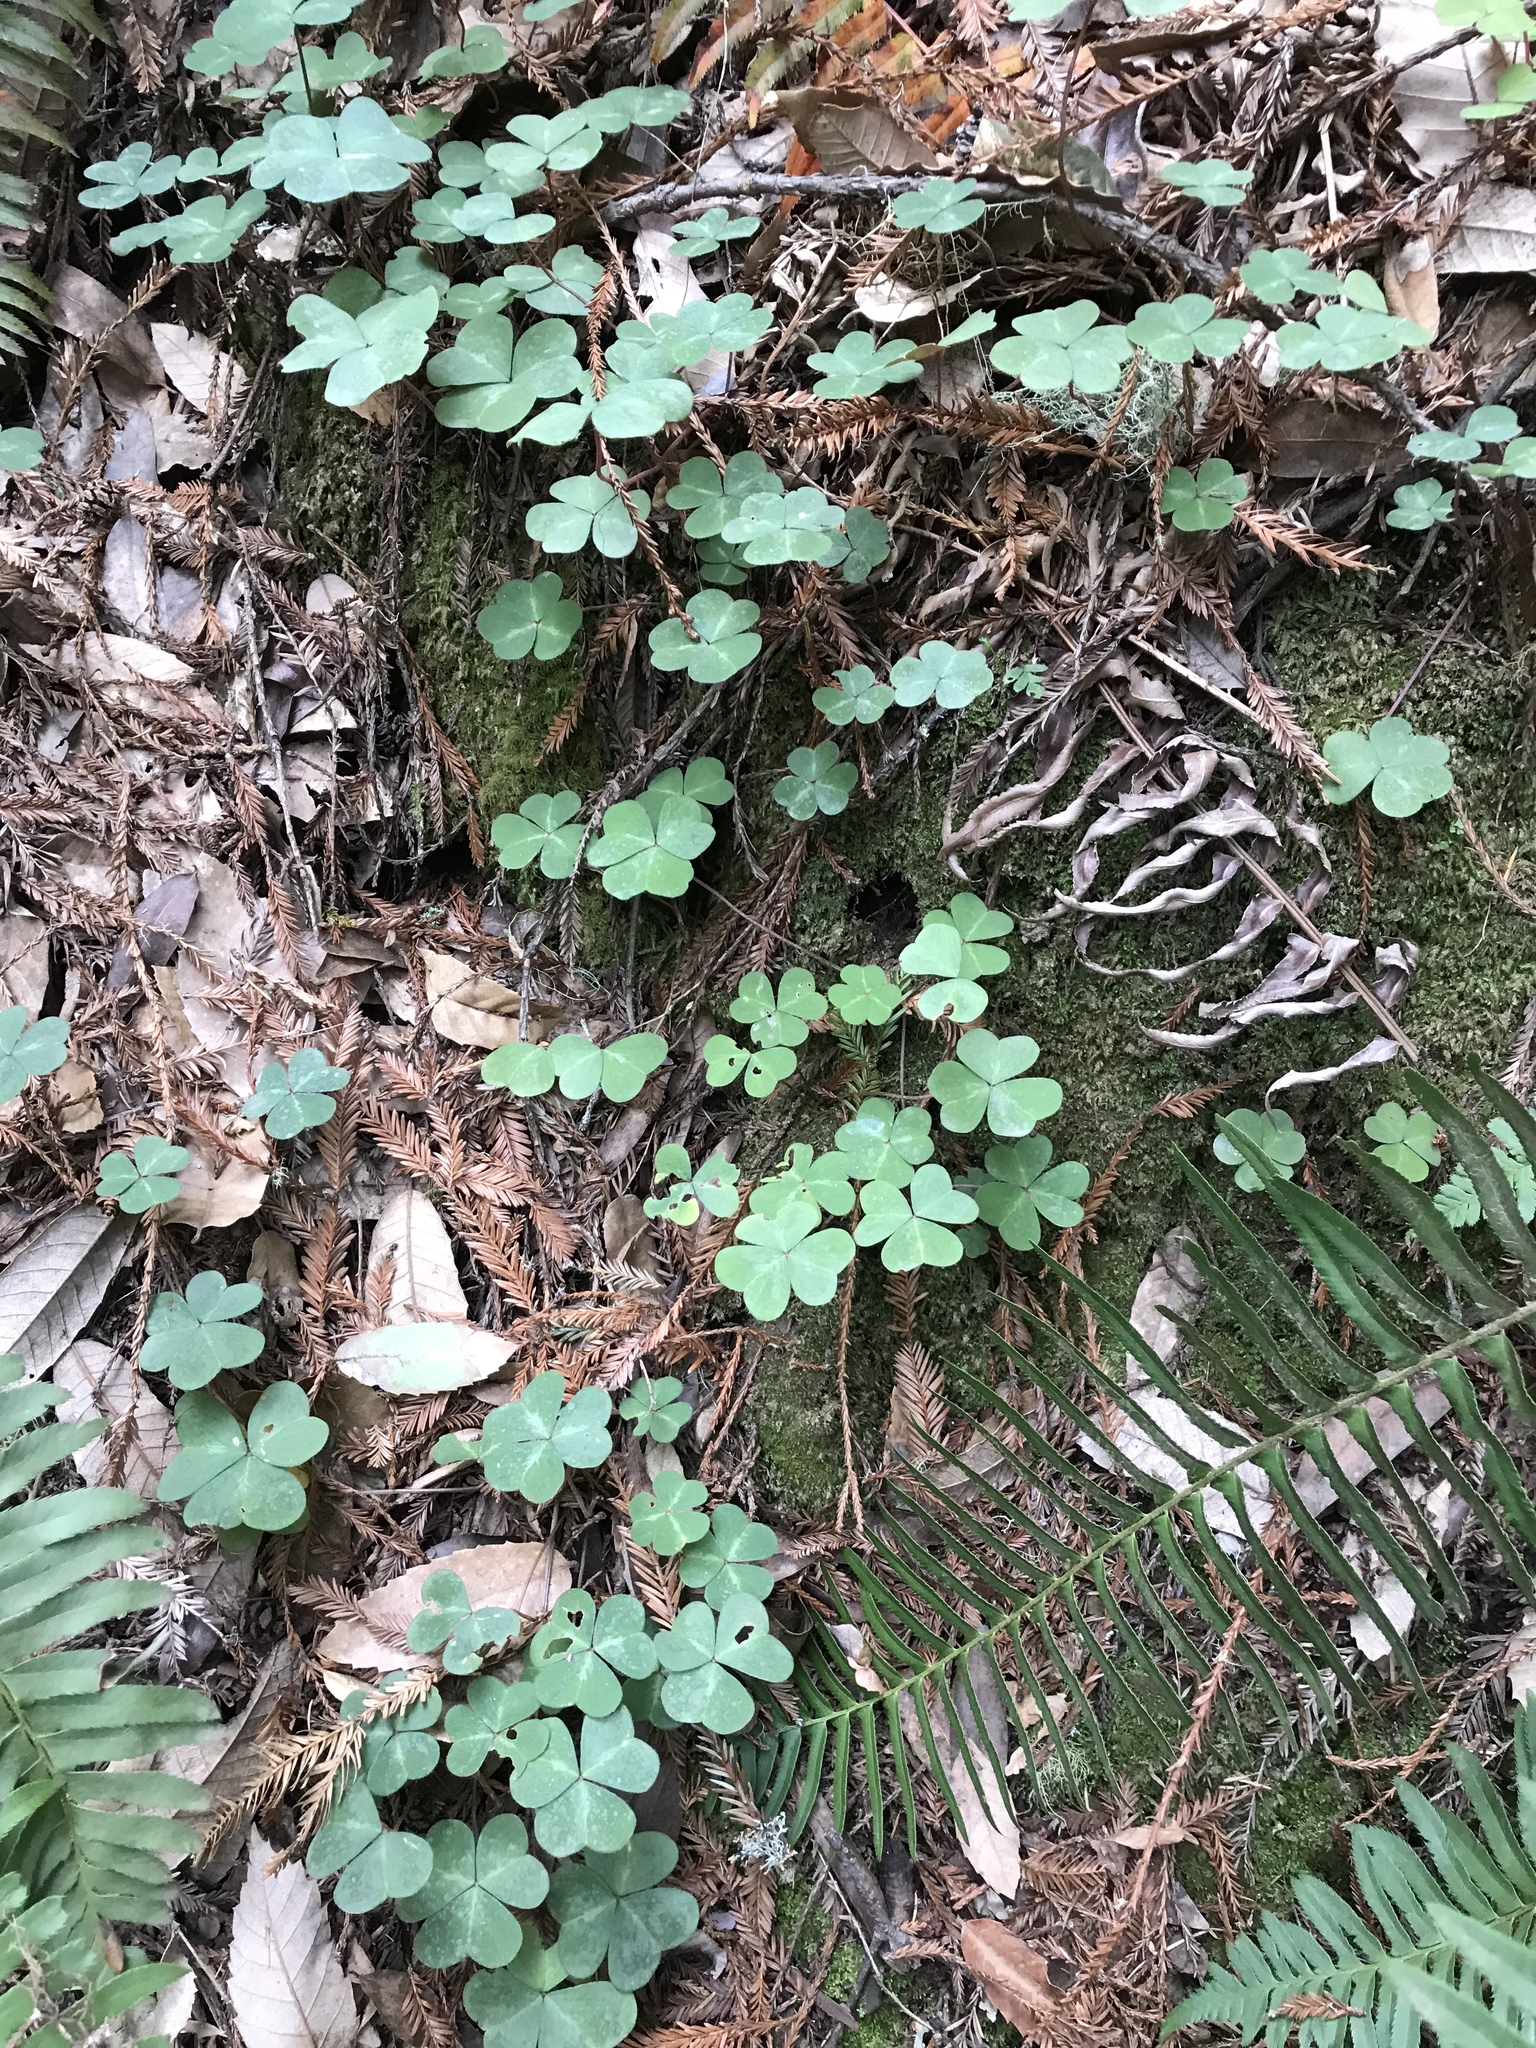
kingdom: Plantae
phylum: Tracheophyta
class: Magnoliopsida
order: Oxalidales
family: Oxalidaceae
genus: Oxalis
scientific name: Oxalis oregana
